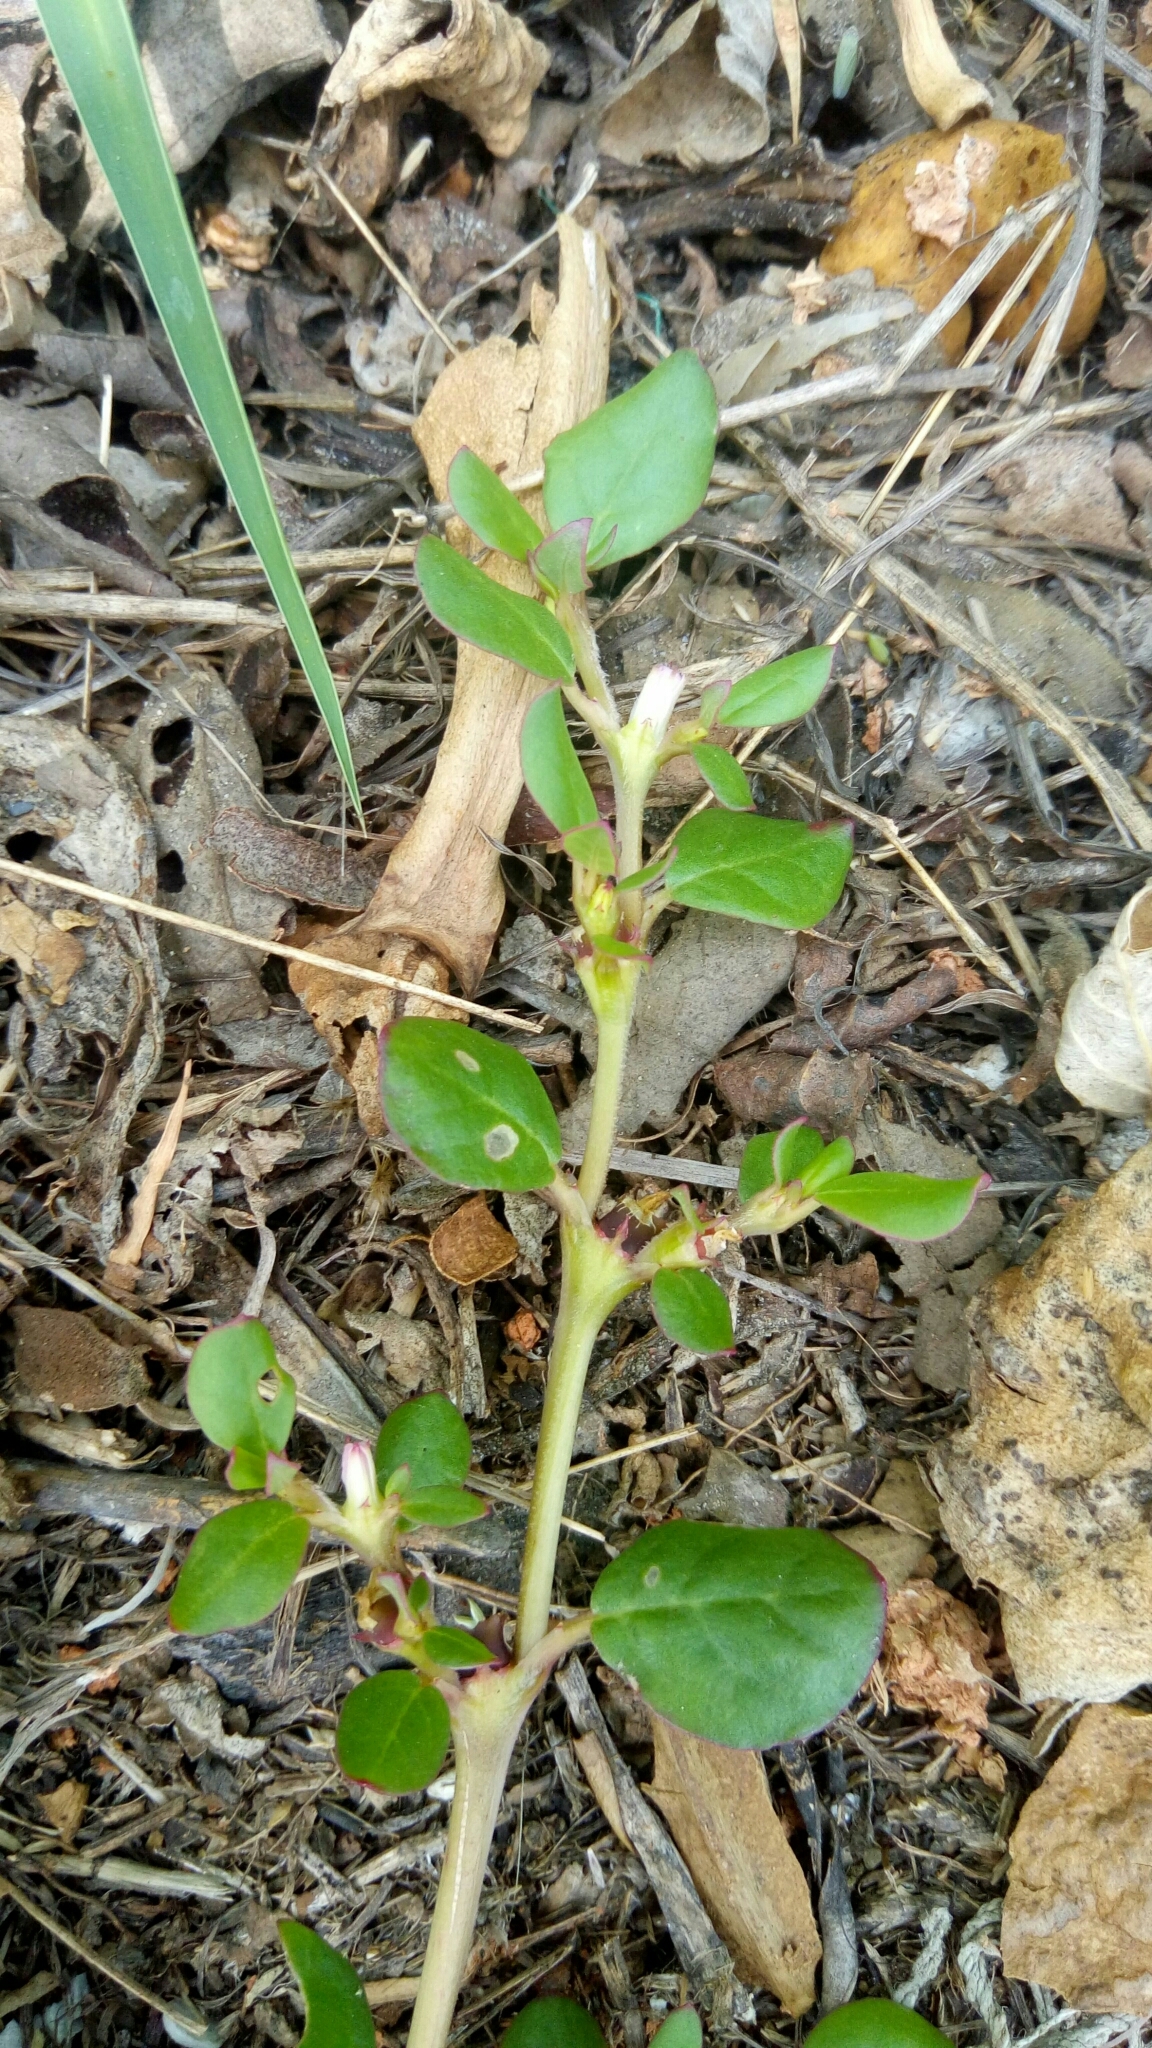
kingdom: Plantae
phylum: Tracheophyta
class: Magnoliopsida
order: Caryophyllales
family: Aizoaceae
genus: Trianthema
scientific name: Trianthema portulacastrum
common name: Desert horsepurslane
